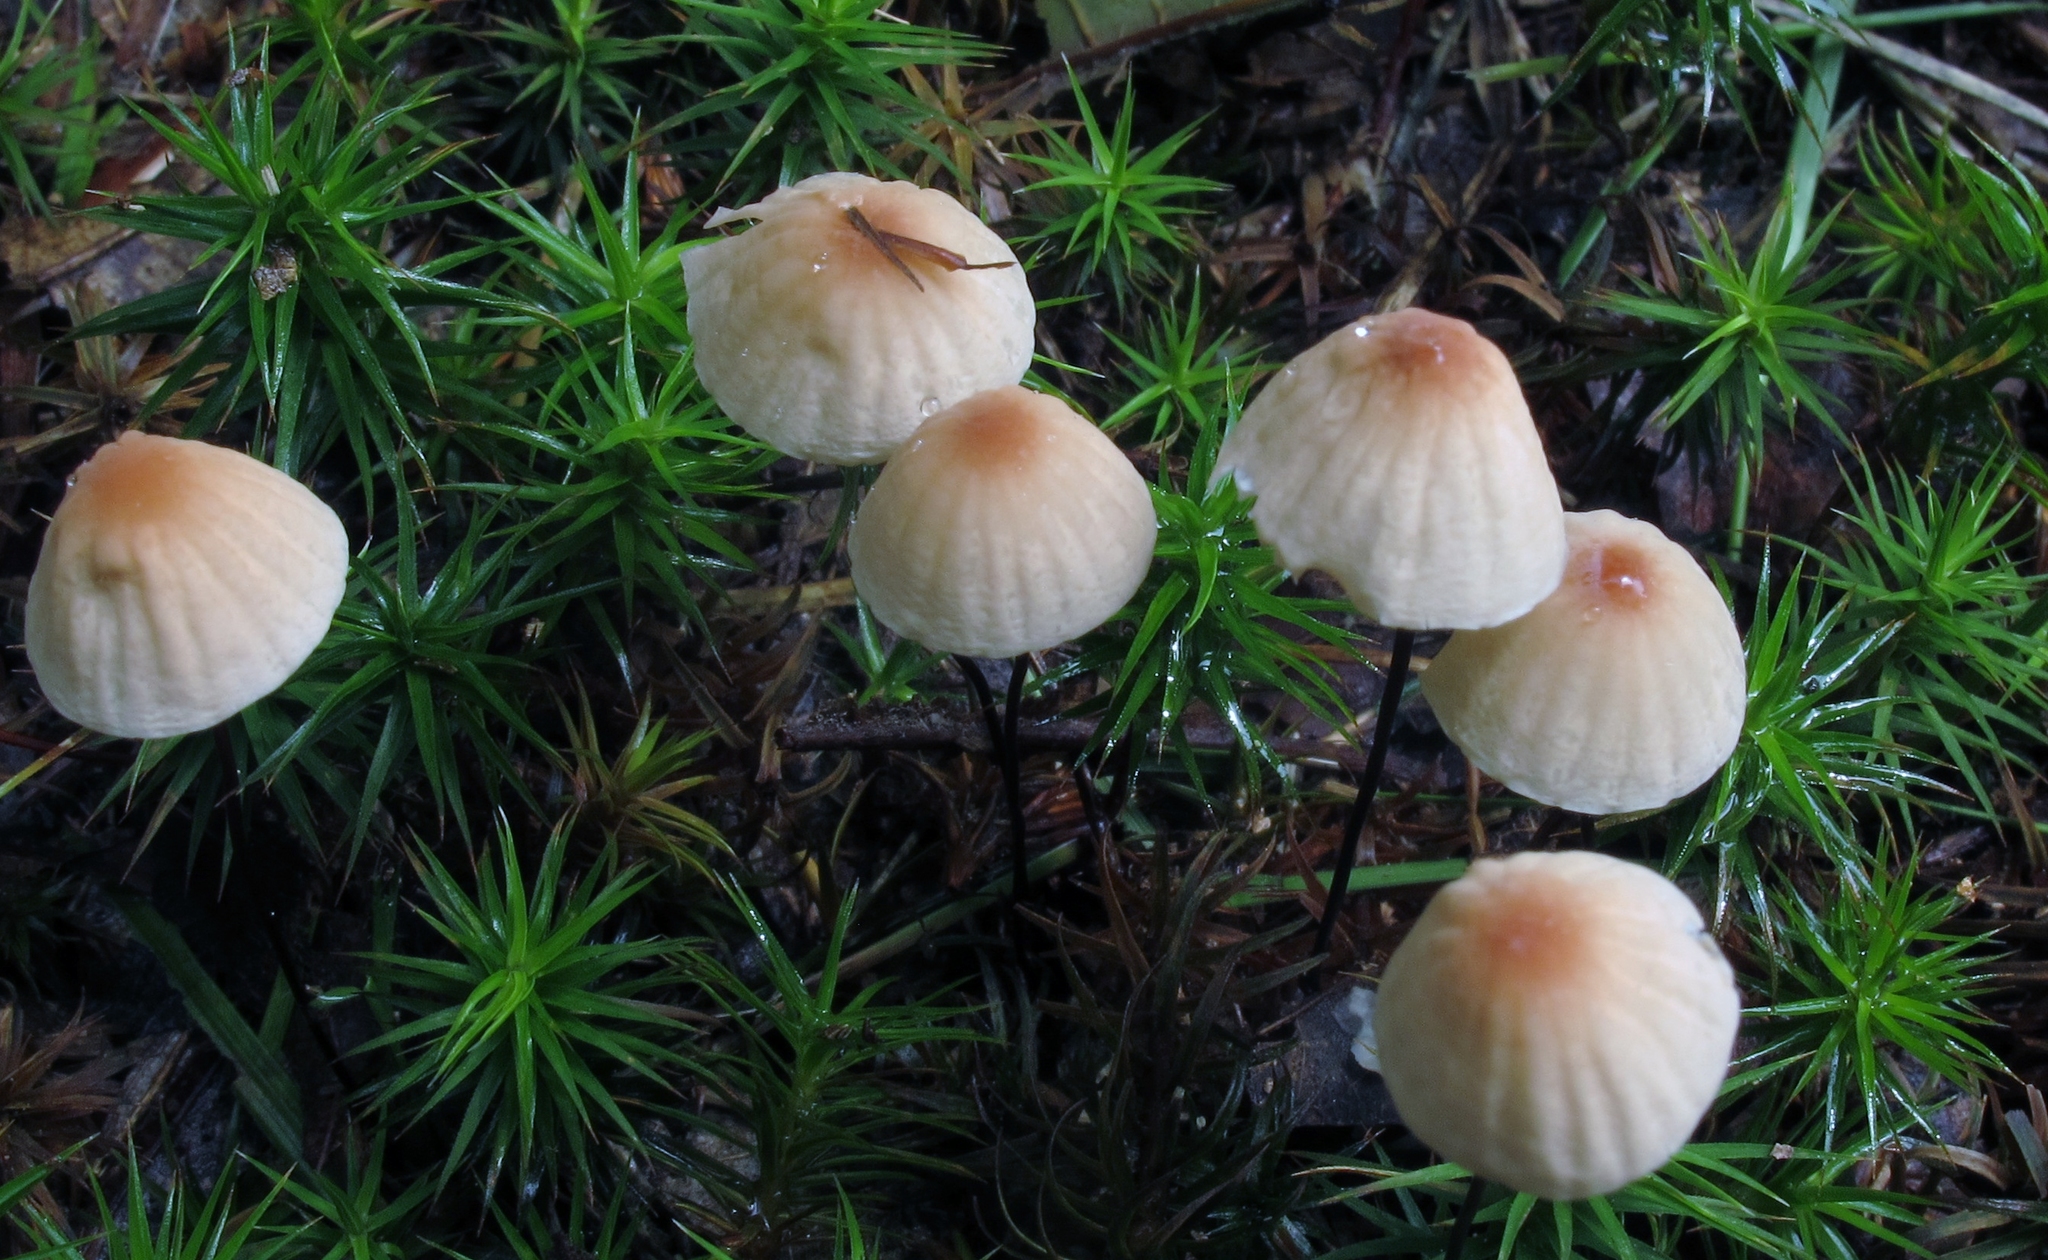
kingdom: Fungi
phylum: Basidiomycota
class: Agaricomycetes
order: Agaricales
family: Marasmiaceae
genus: Marasmius
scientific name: Marasmius siccus
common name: Orange pinwheel
